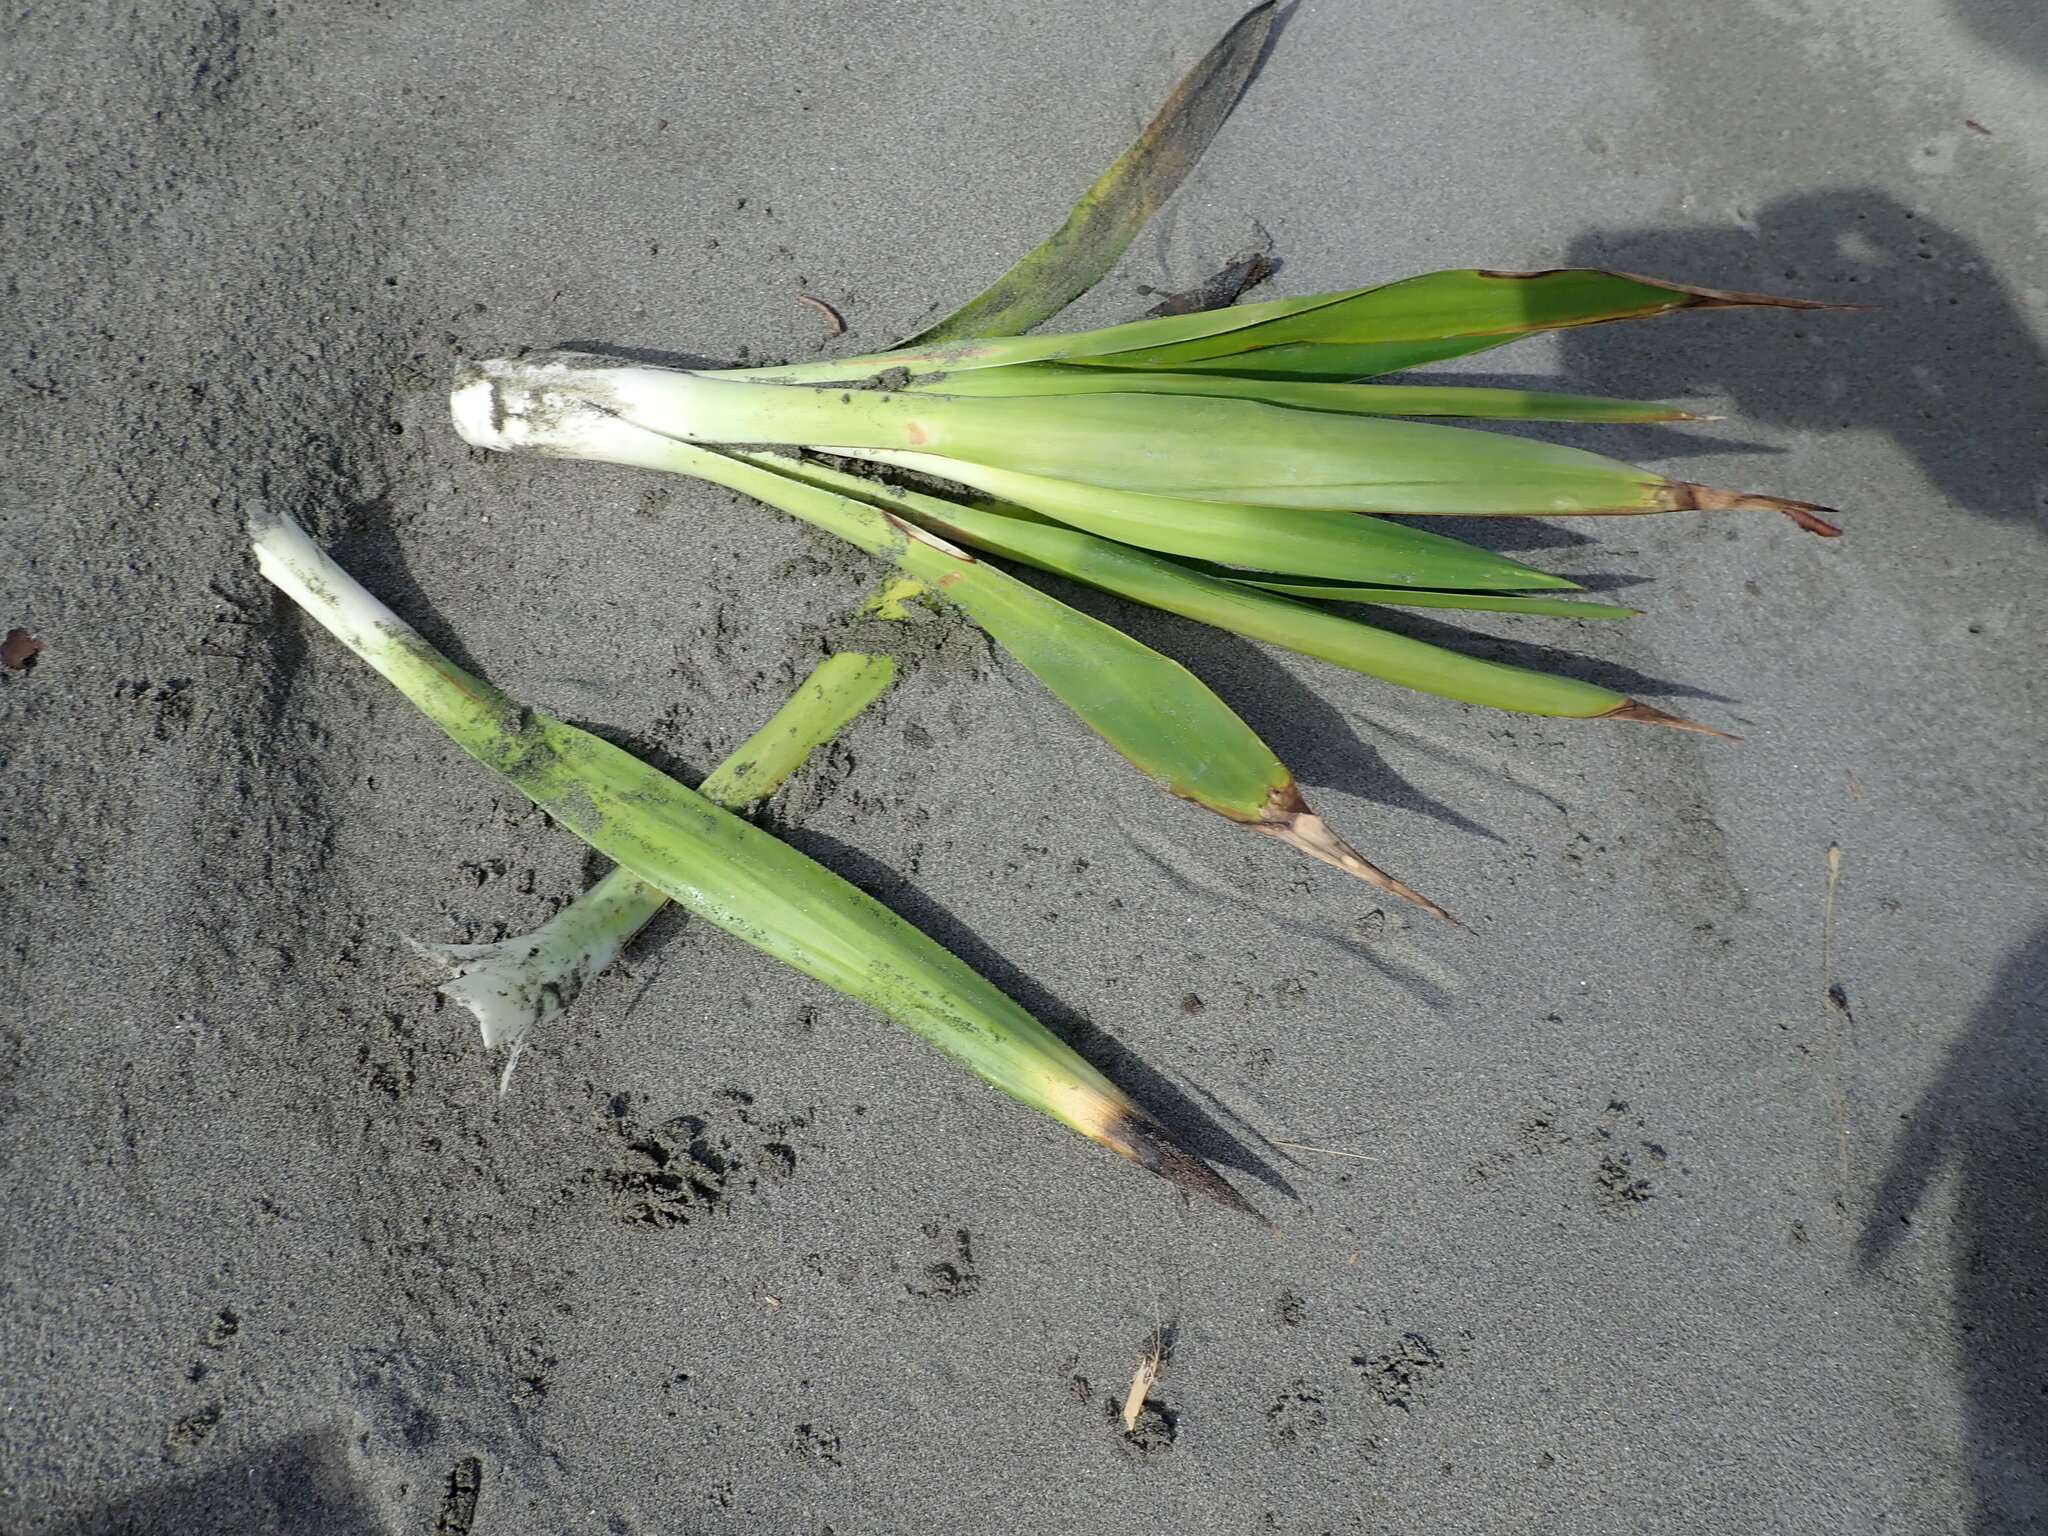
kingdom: Plantae
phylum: Tracheophyta
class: Liliopsida
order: Asparagales
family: Asparagaceae
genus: Yucca
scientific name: Yucca gloriosa
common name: Spanish-dagger
